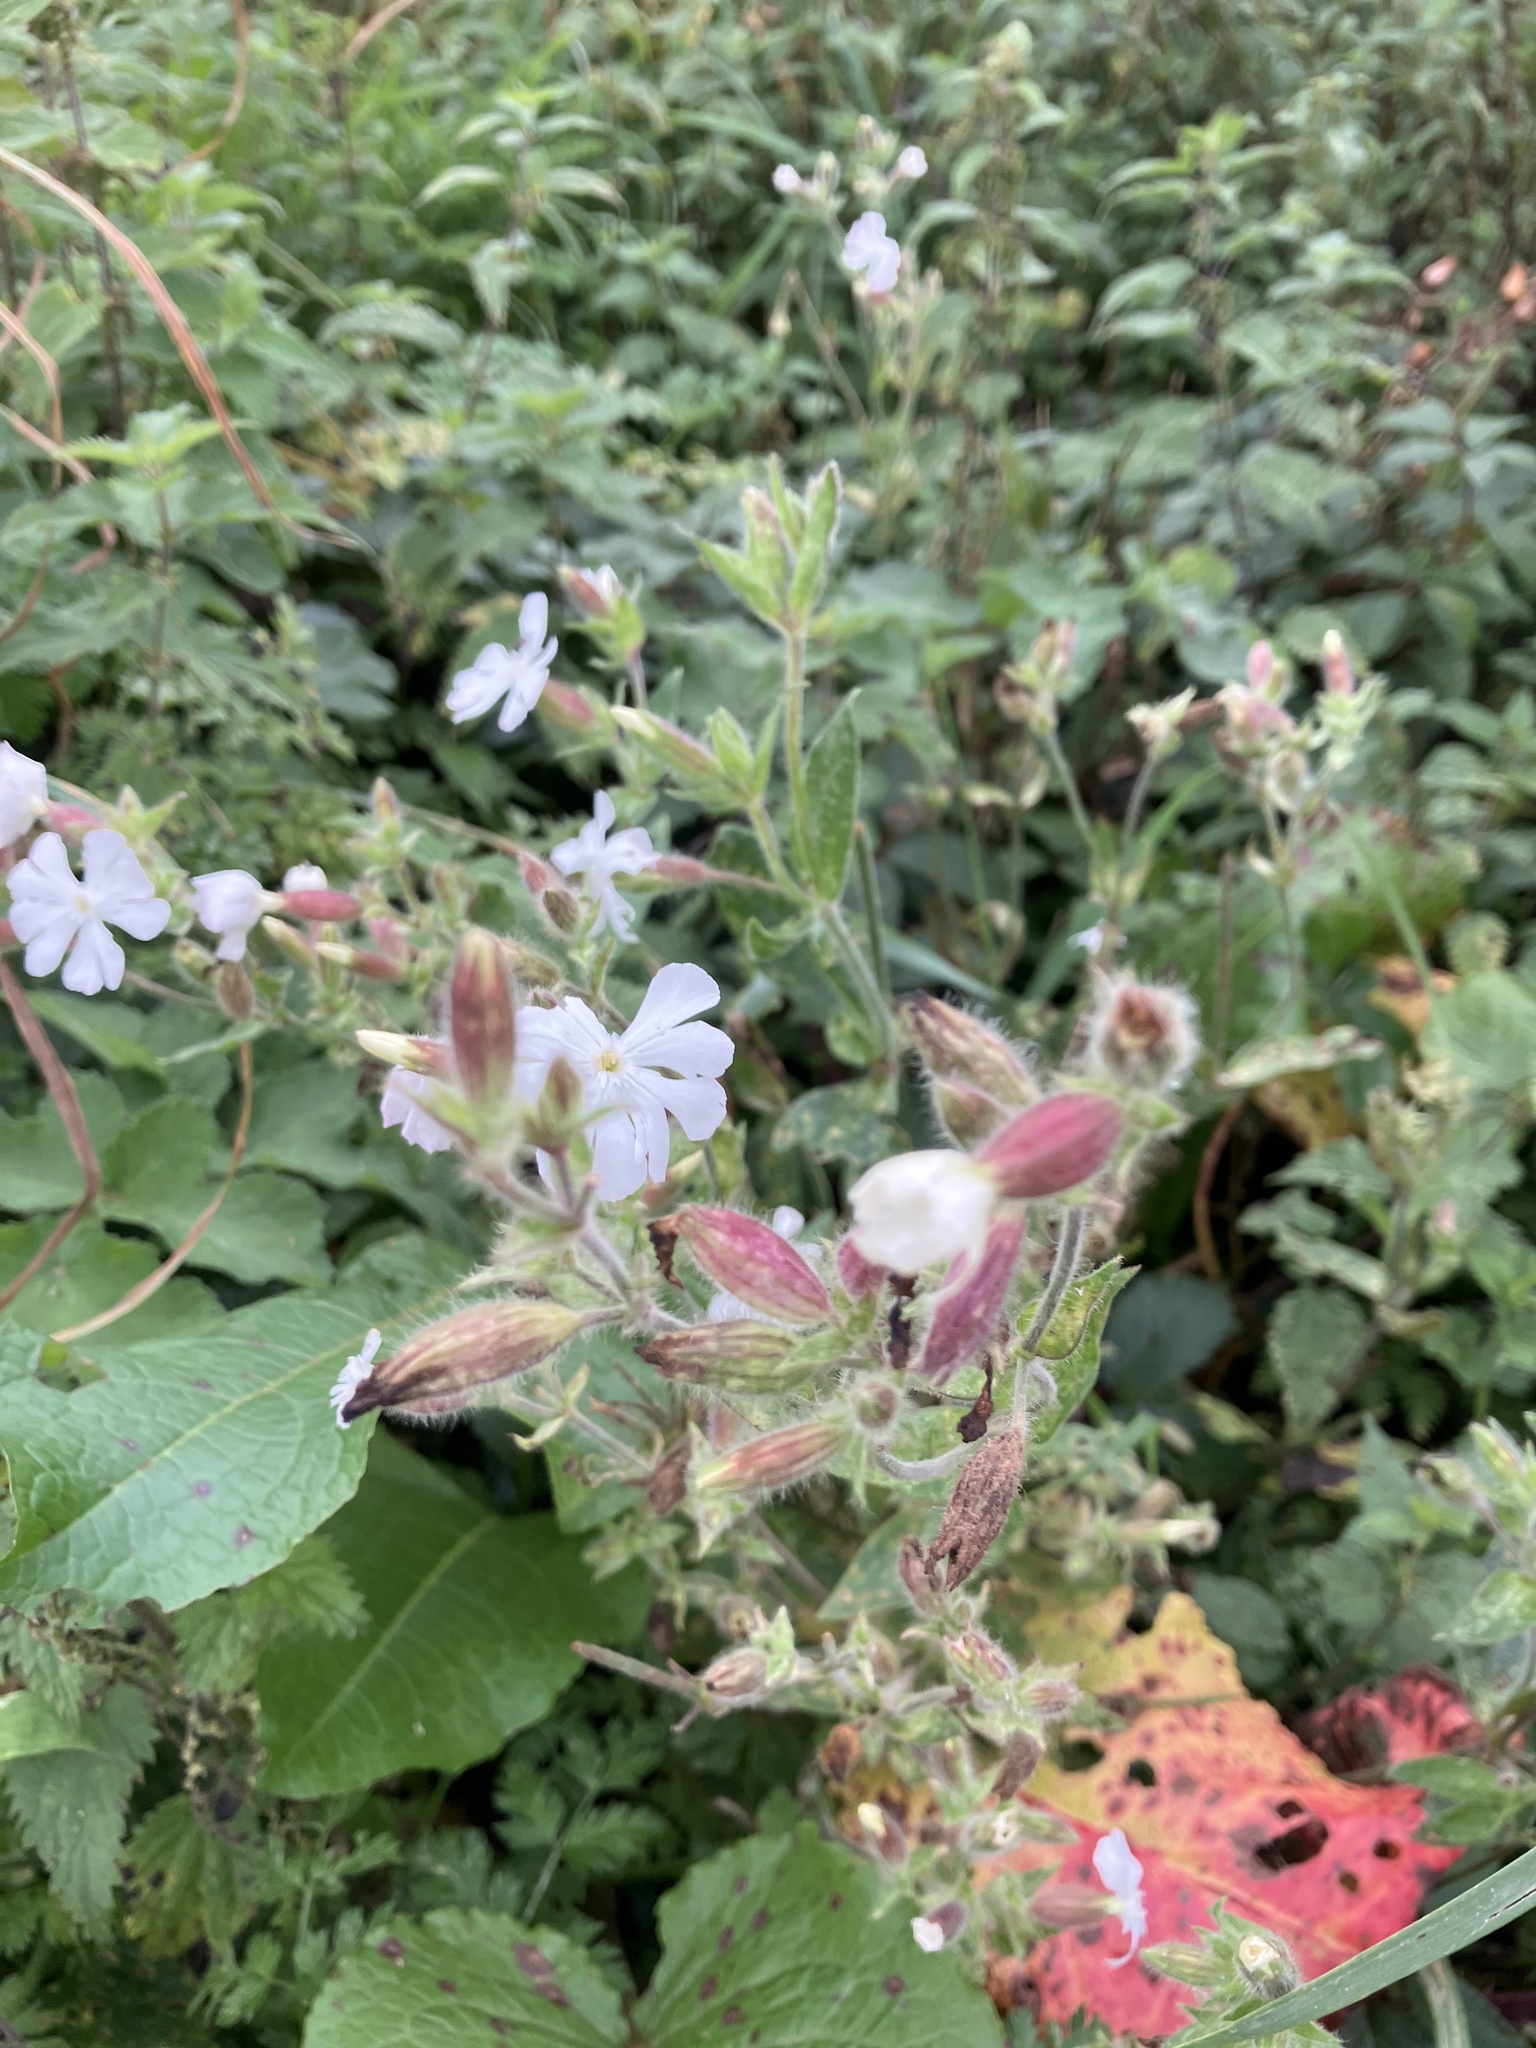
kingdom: Plantae
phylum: Tracheophyta
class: Magnoliopsida
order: Caryophyllales
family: Caryophyllaceae
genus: Silene
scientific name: Silene latifolia
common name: White campion
